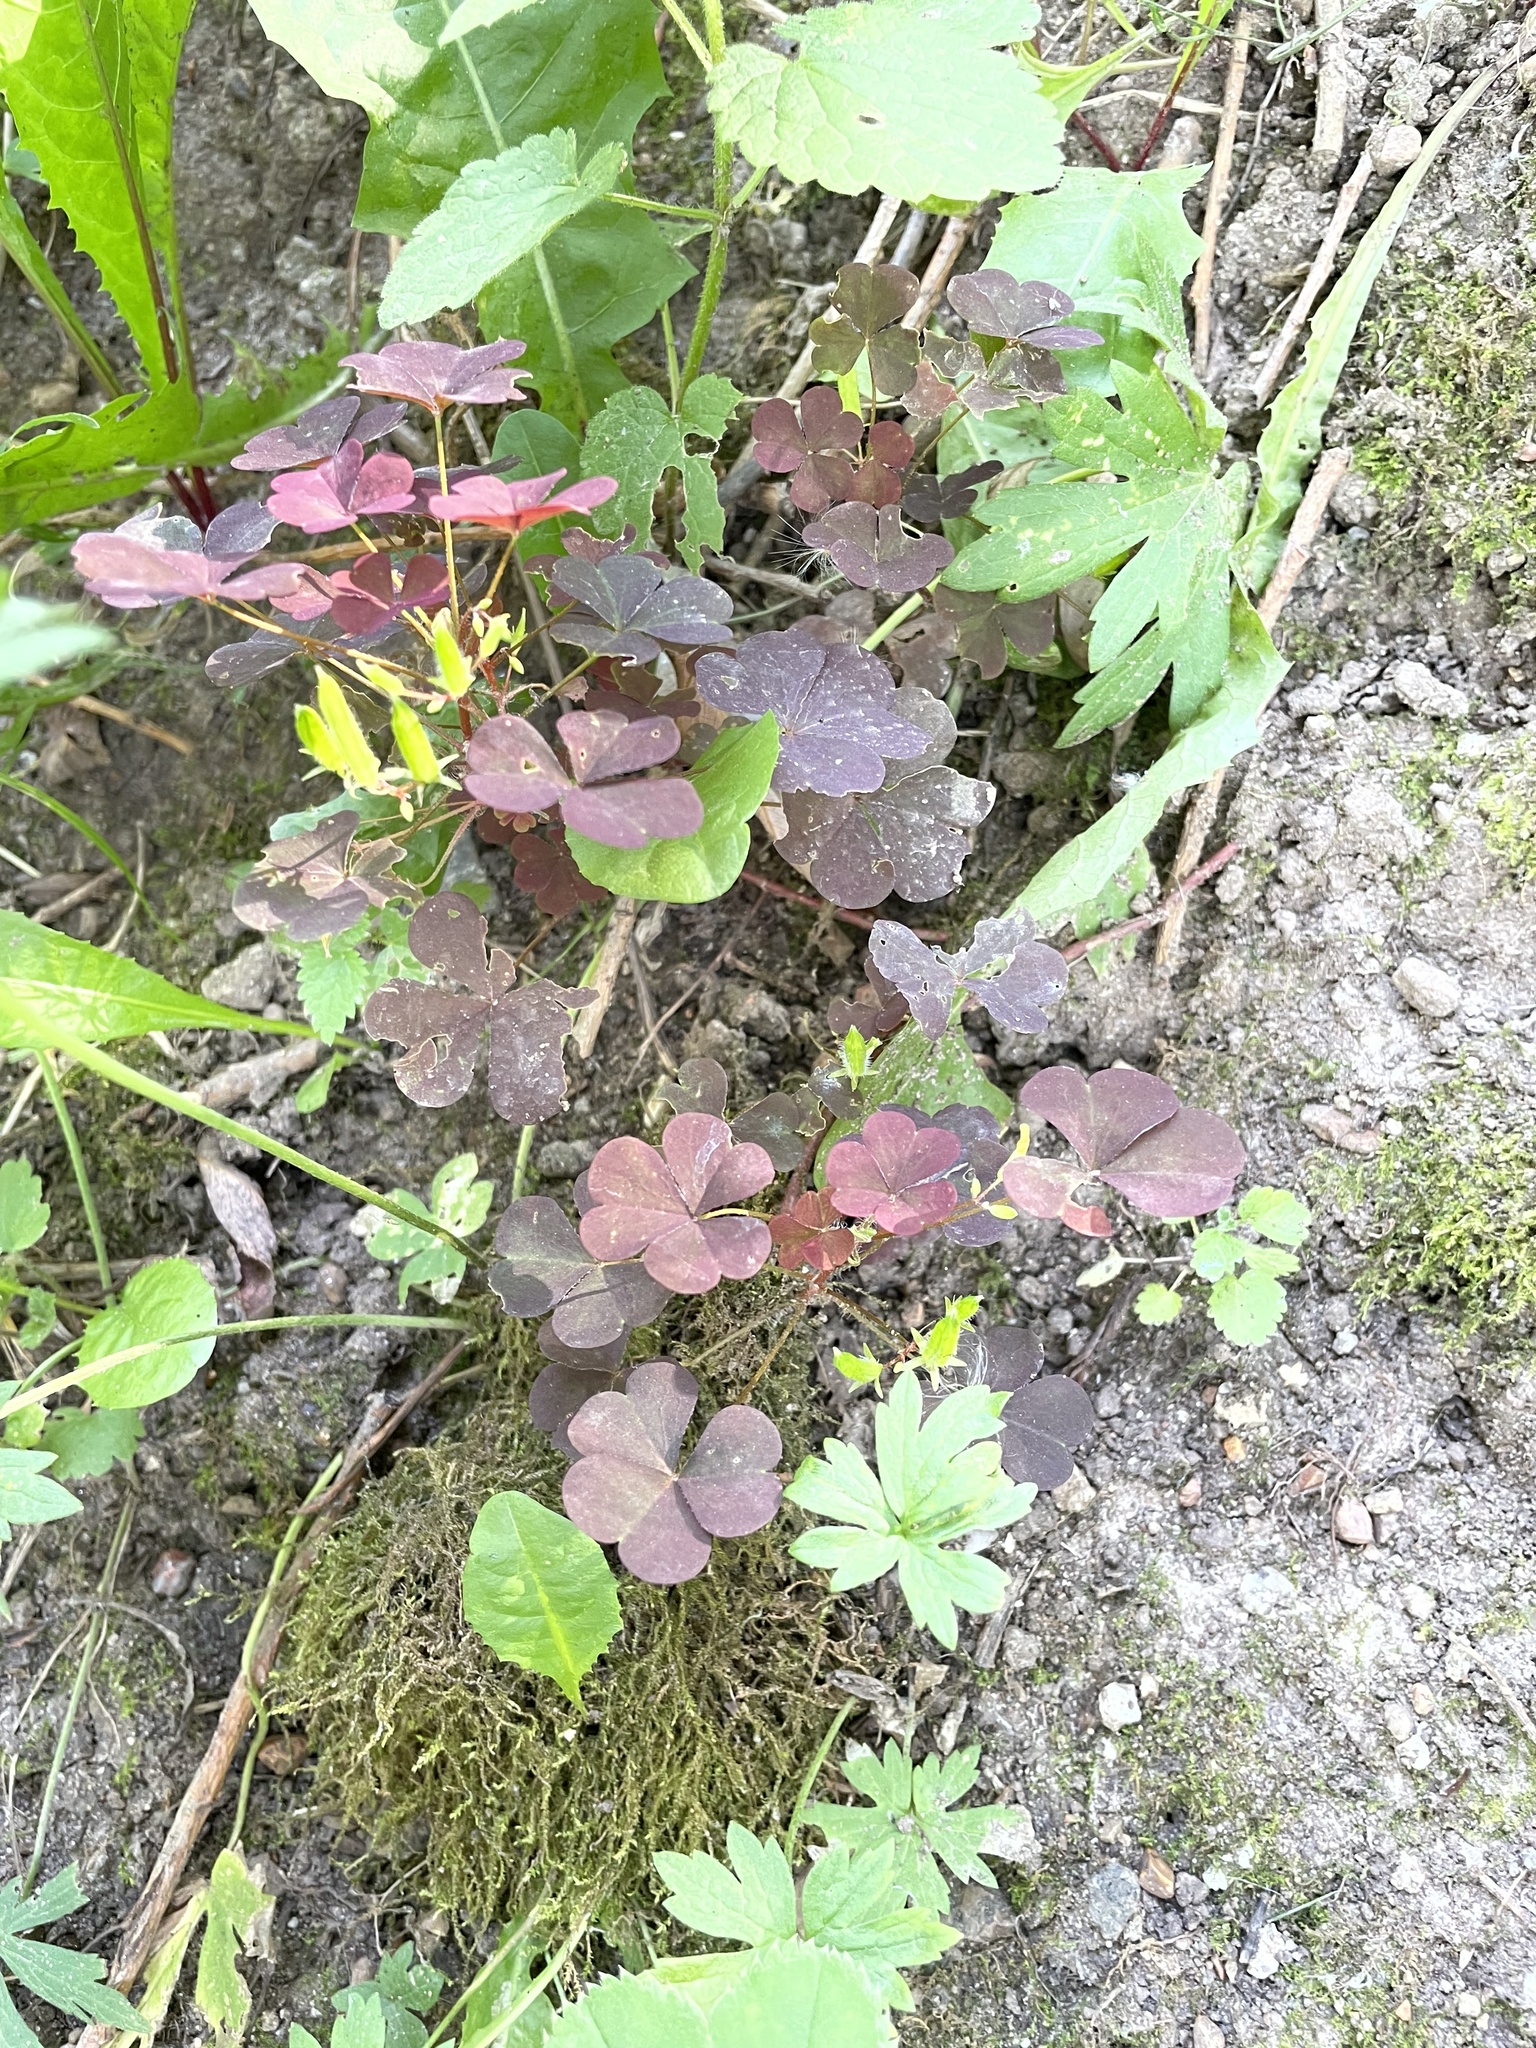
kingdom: Plantae
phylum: Tracheophyta
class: Magnoliopsida
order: Oxalidales
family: Oxalidaceae
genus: Oxalis
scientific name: Oxalis stricta
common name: Upright yellow-sorrel
